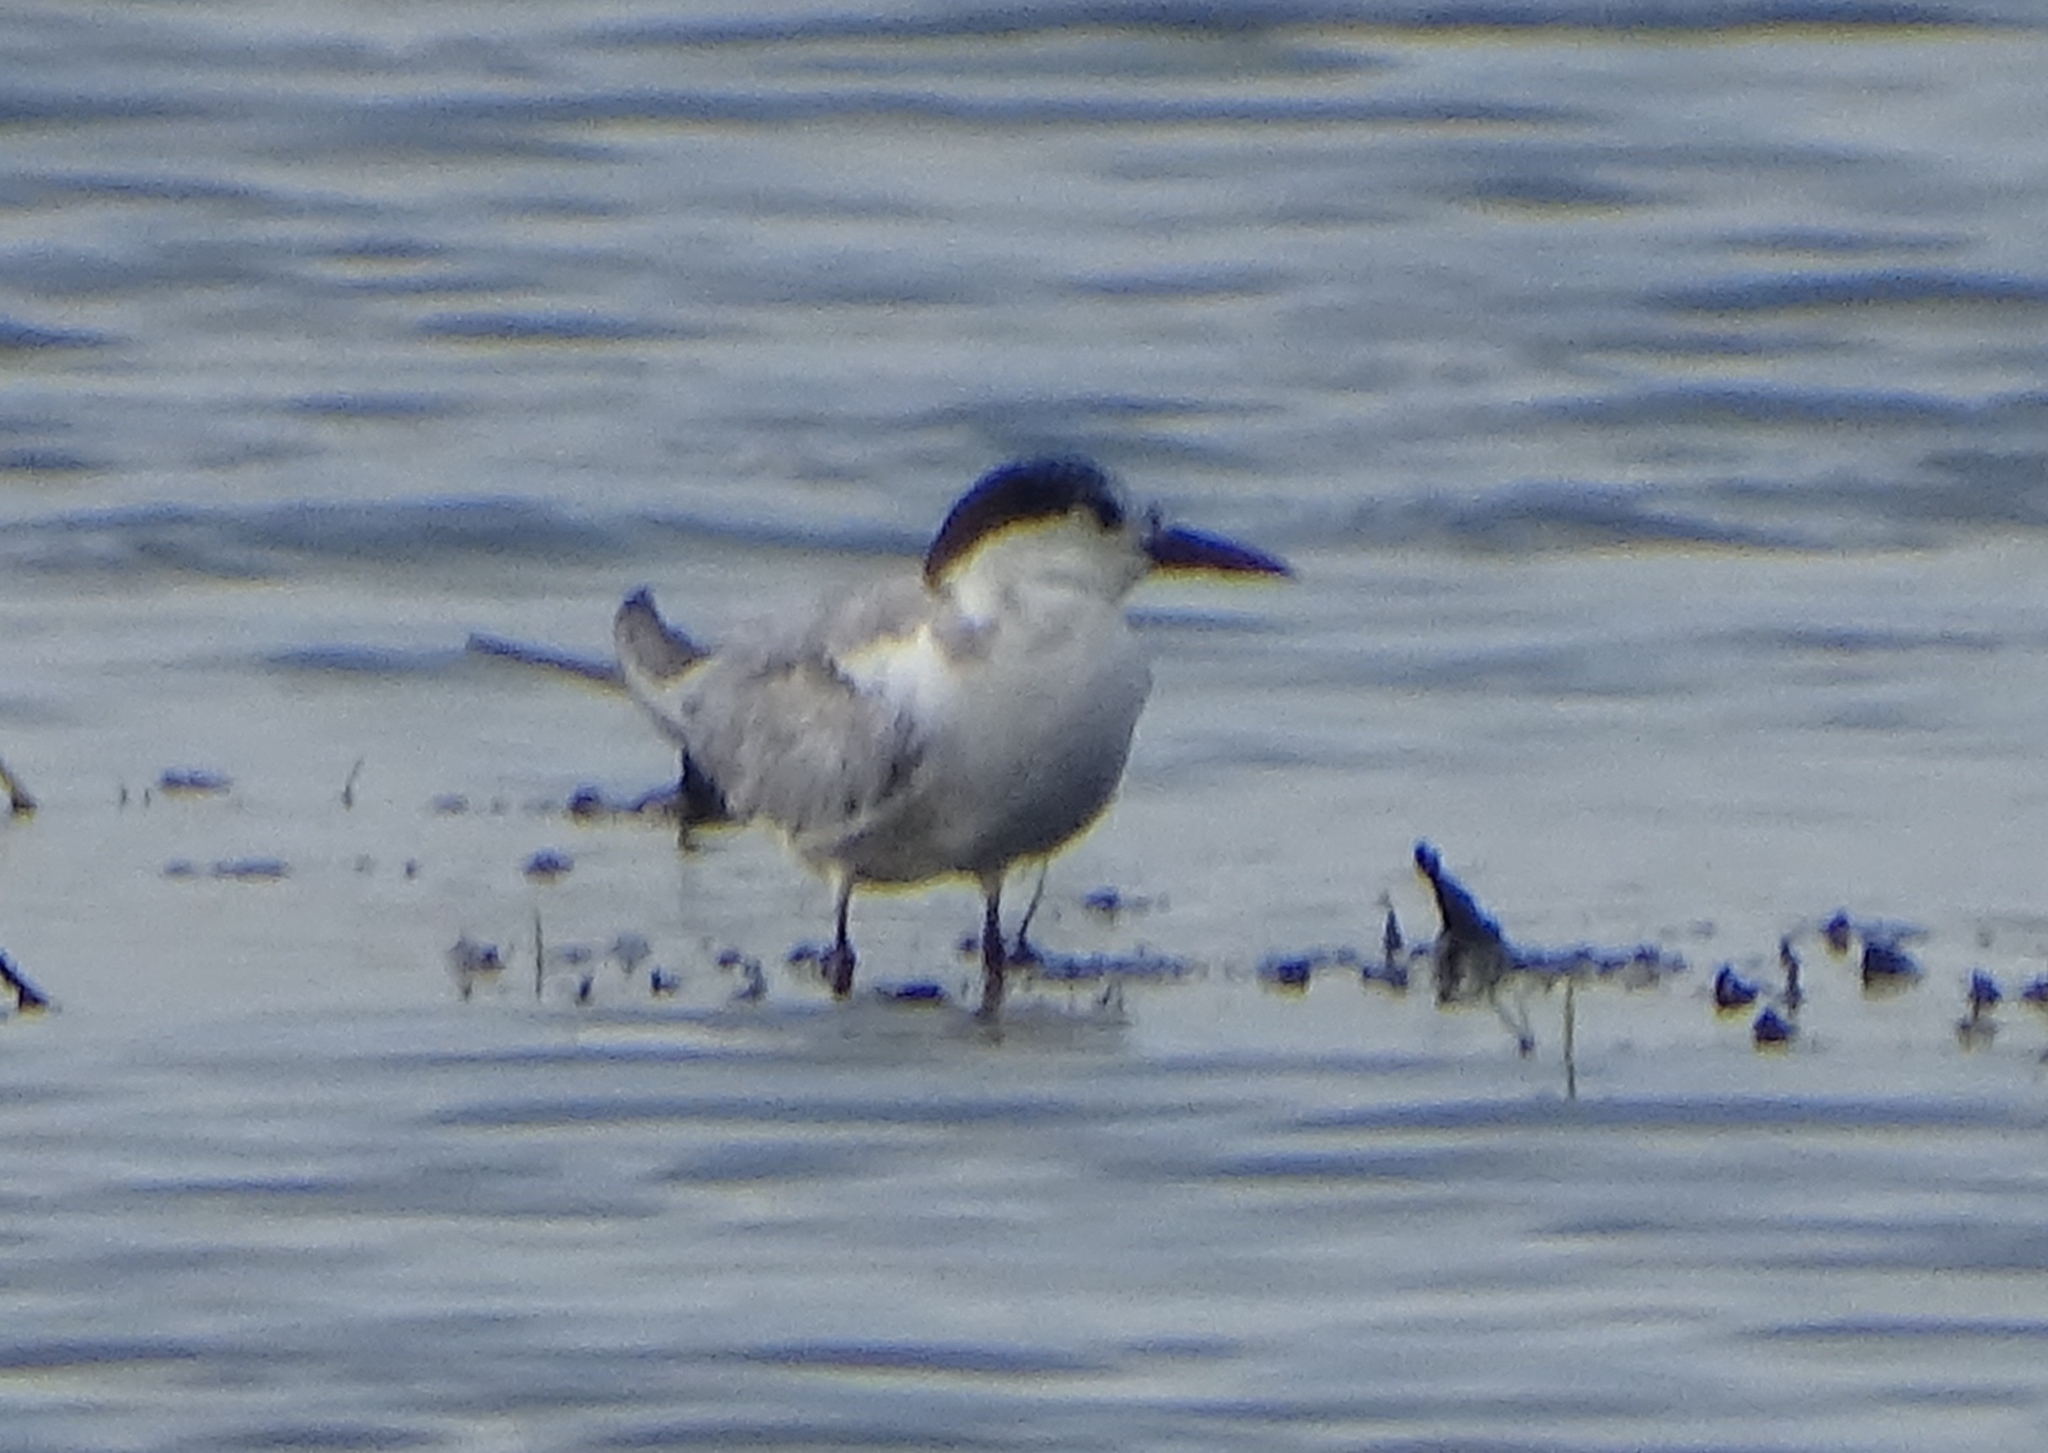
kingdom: Animalia
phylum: Chordata
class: Aves
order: Charadriiformes
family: Laridae
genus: Chlidonias
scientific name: Chlidonias hybrida
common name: Whiskered tern
